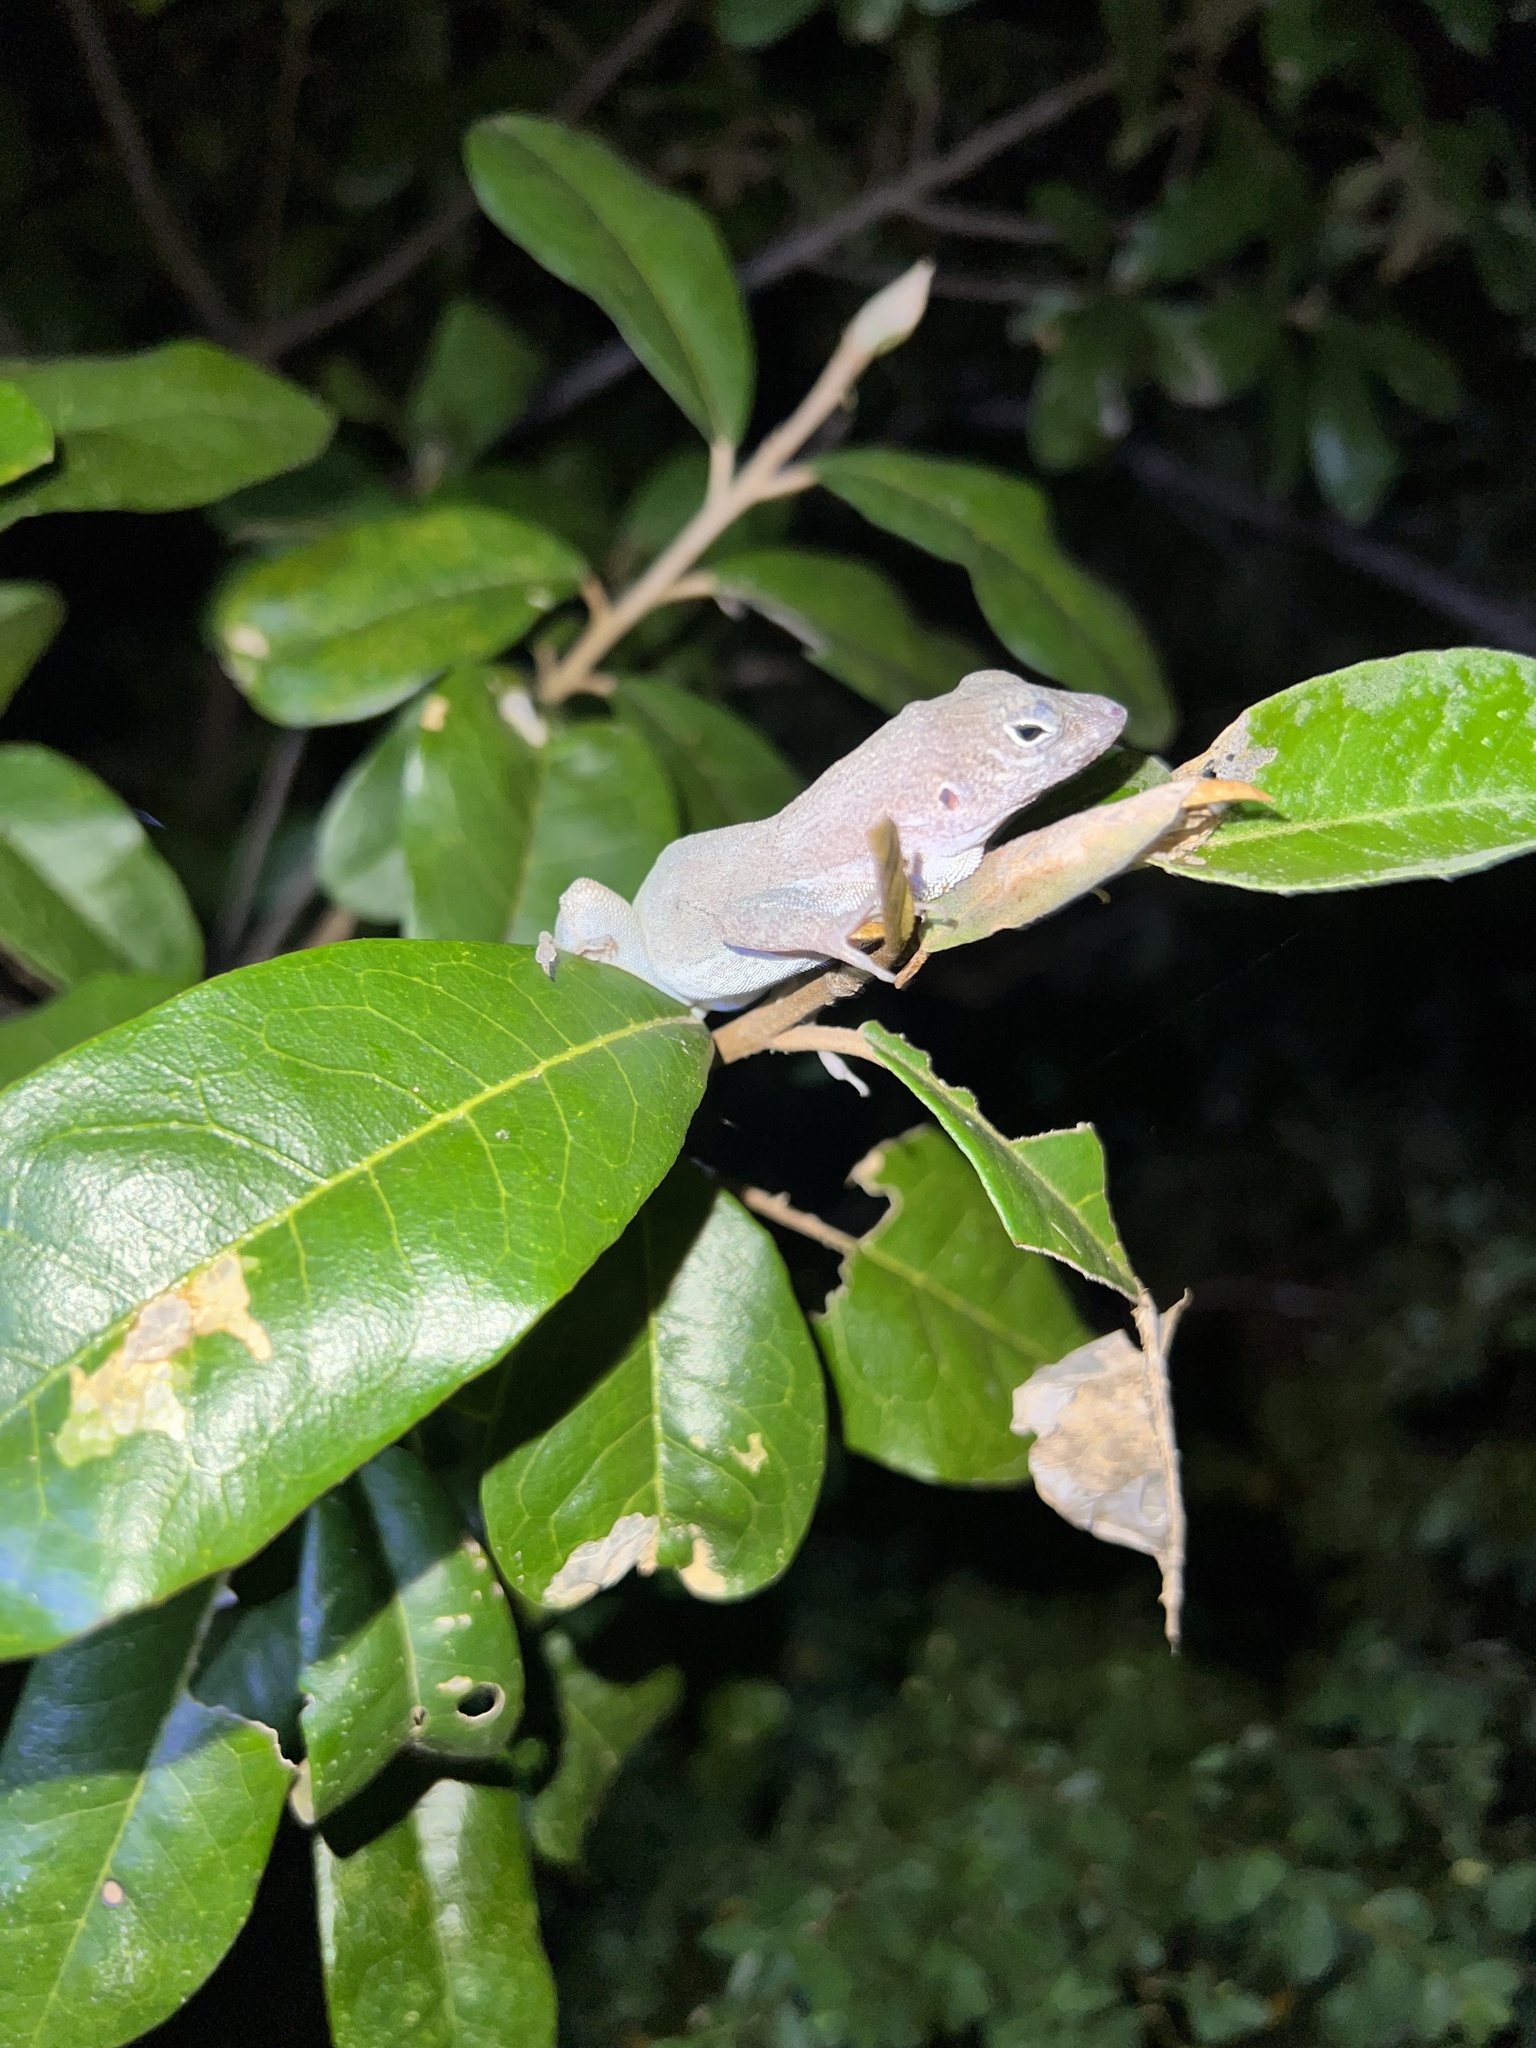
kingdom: Animalia
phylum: Chordata
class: Squamata
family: Dactyloidae
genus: Anolis
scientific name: Anolis cristatellus
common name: Crested anole
